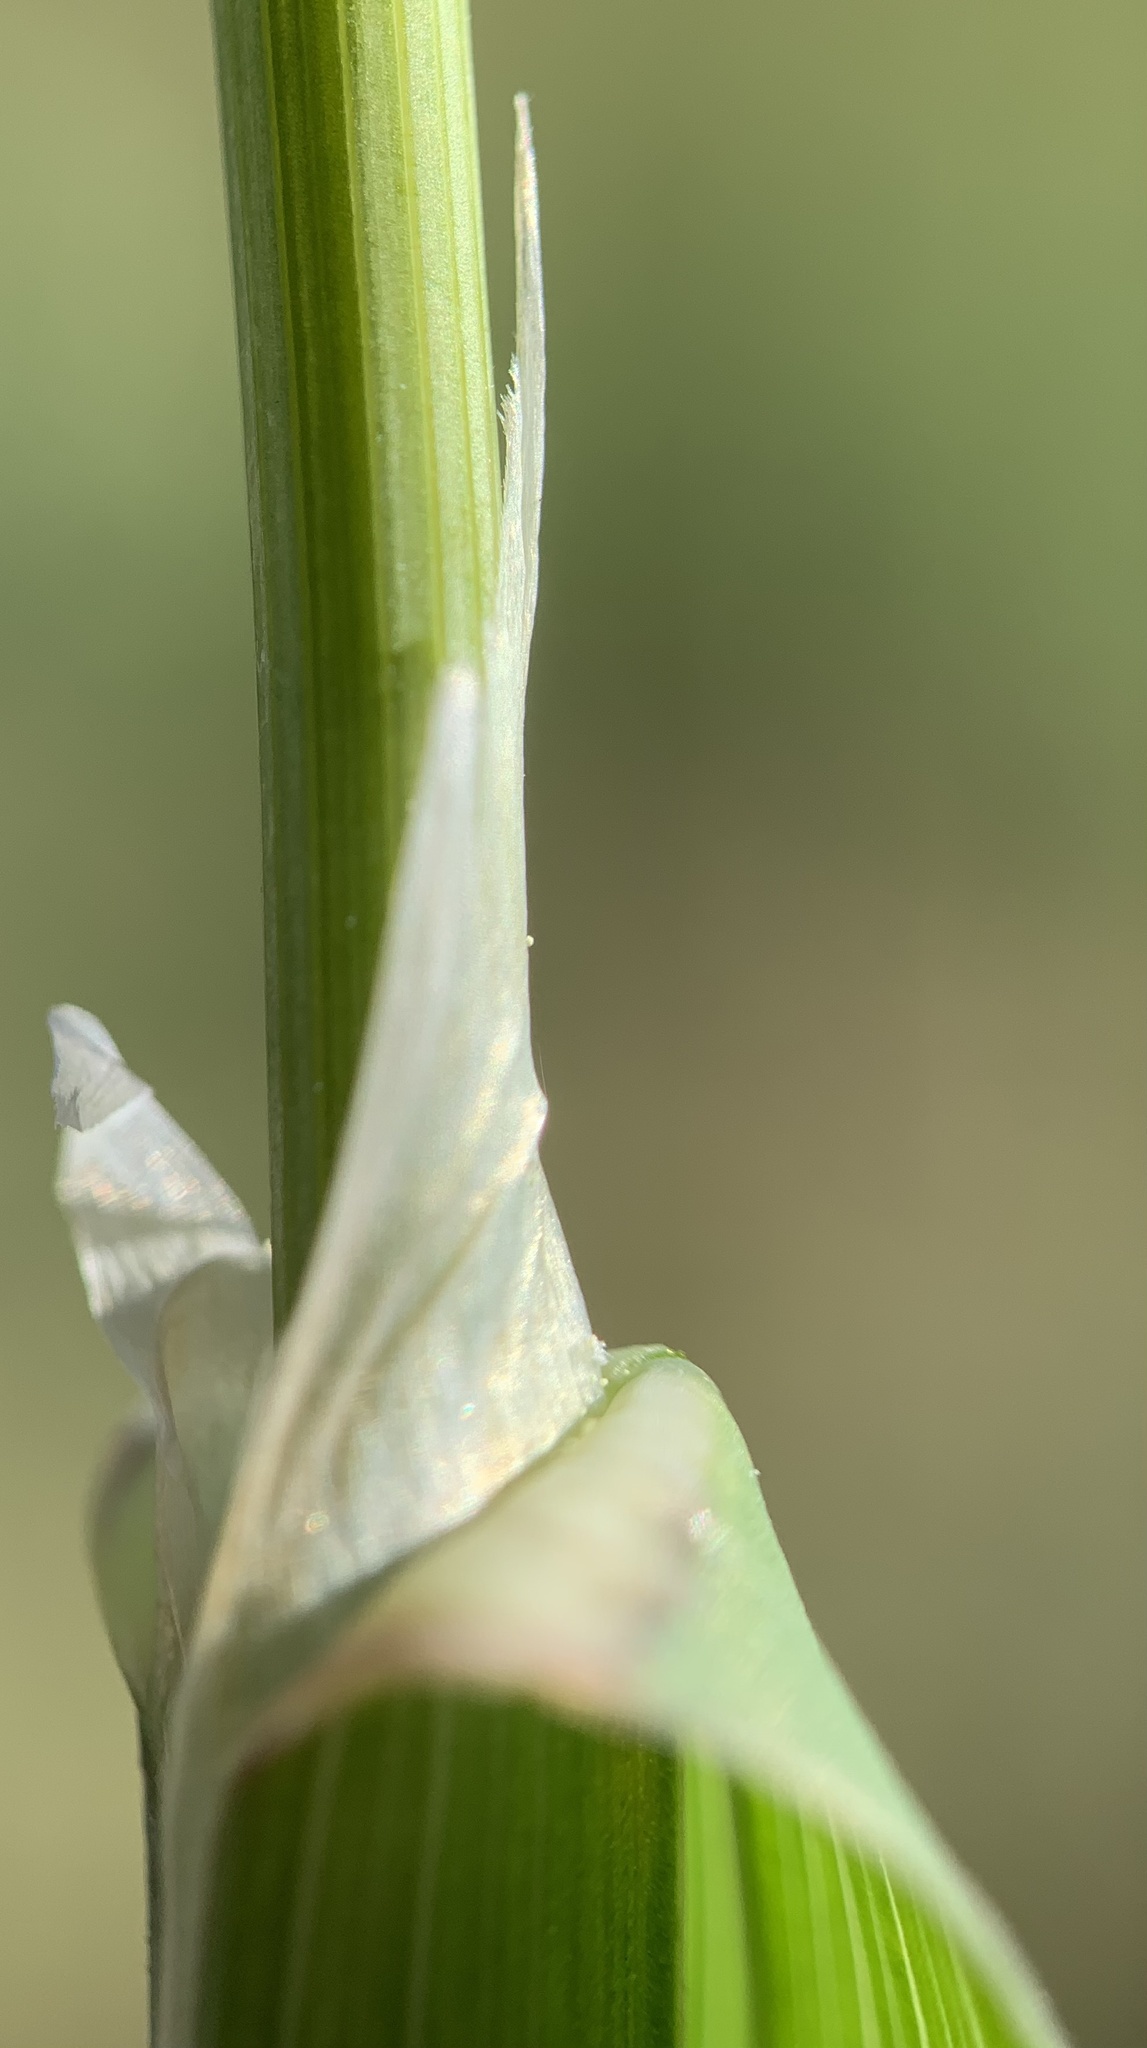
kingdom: Plantae
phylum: Tracheophyta
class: Liliopsida
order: Poales
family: Poaceae
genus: Dactylis
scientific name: Dactylis glomerata
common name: Orchardgrass
